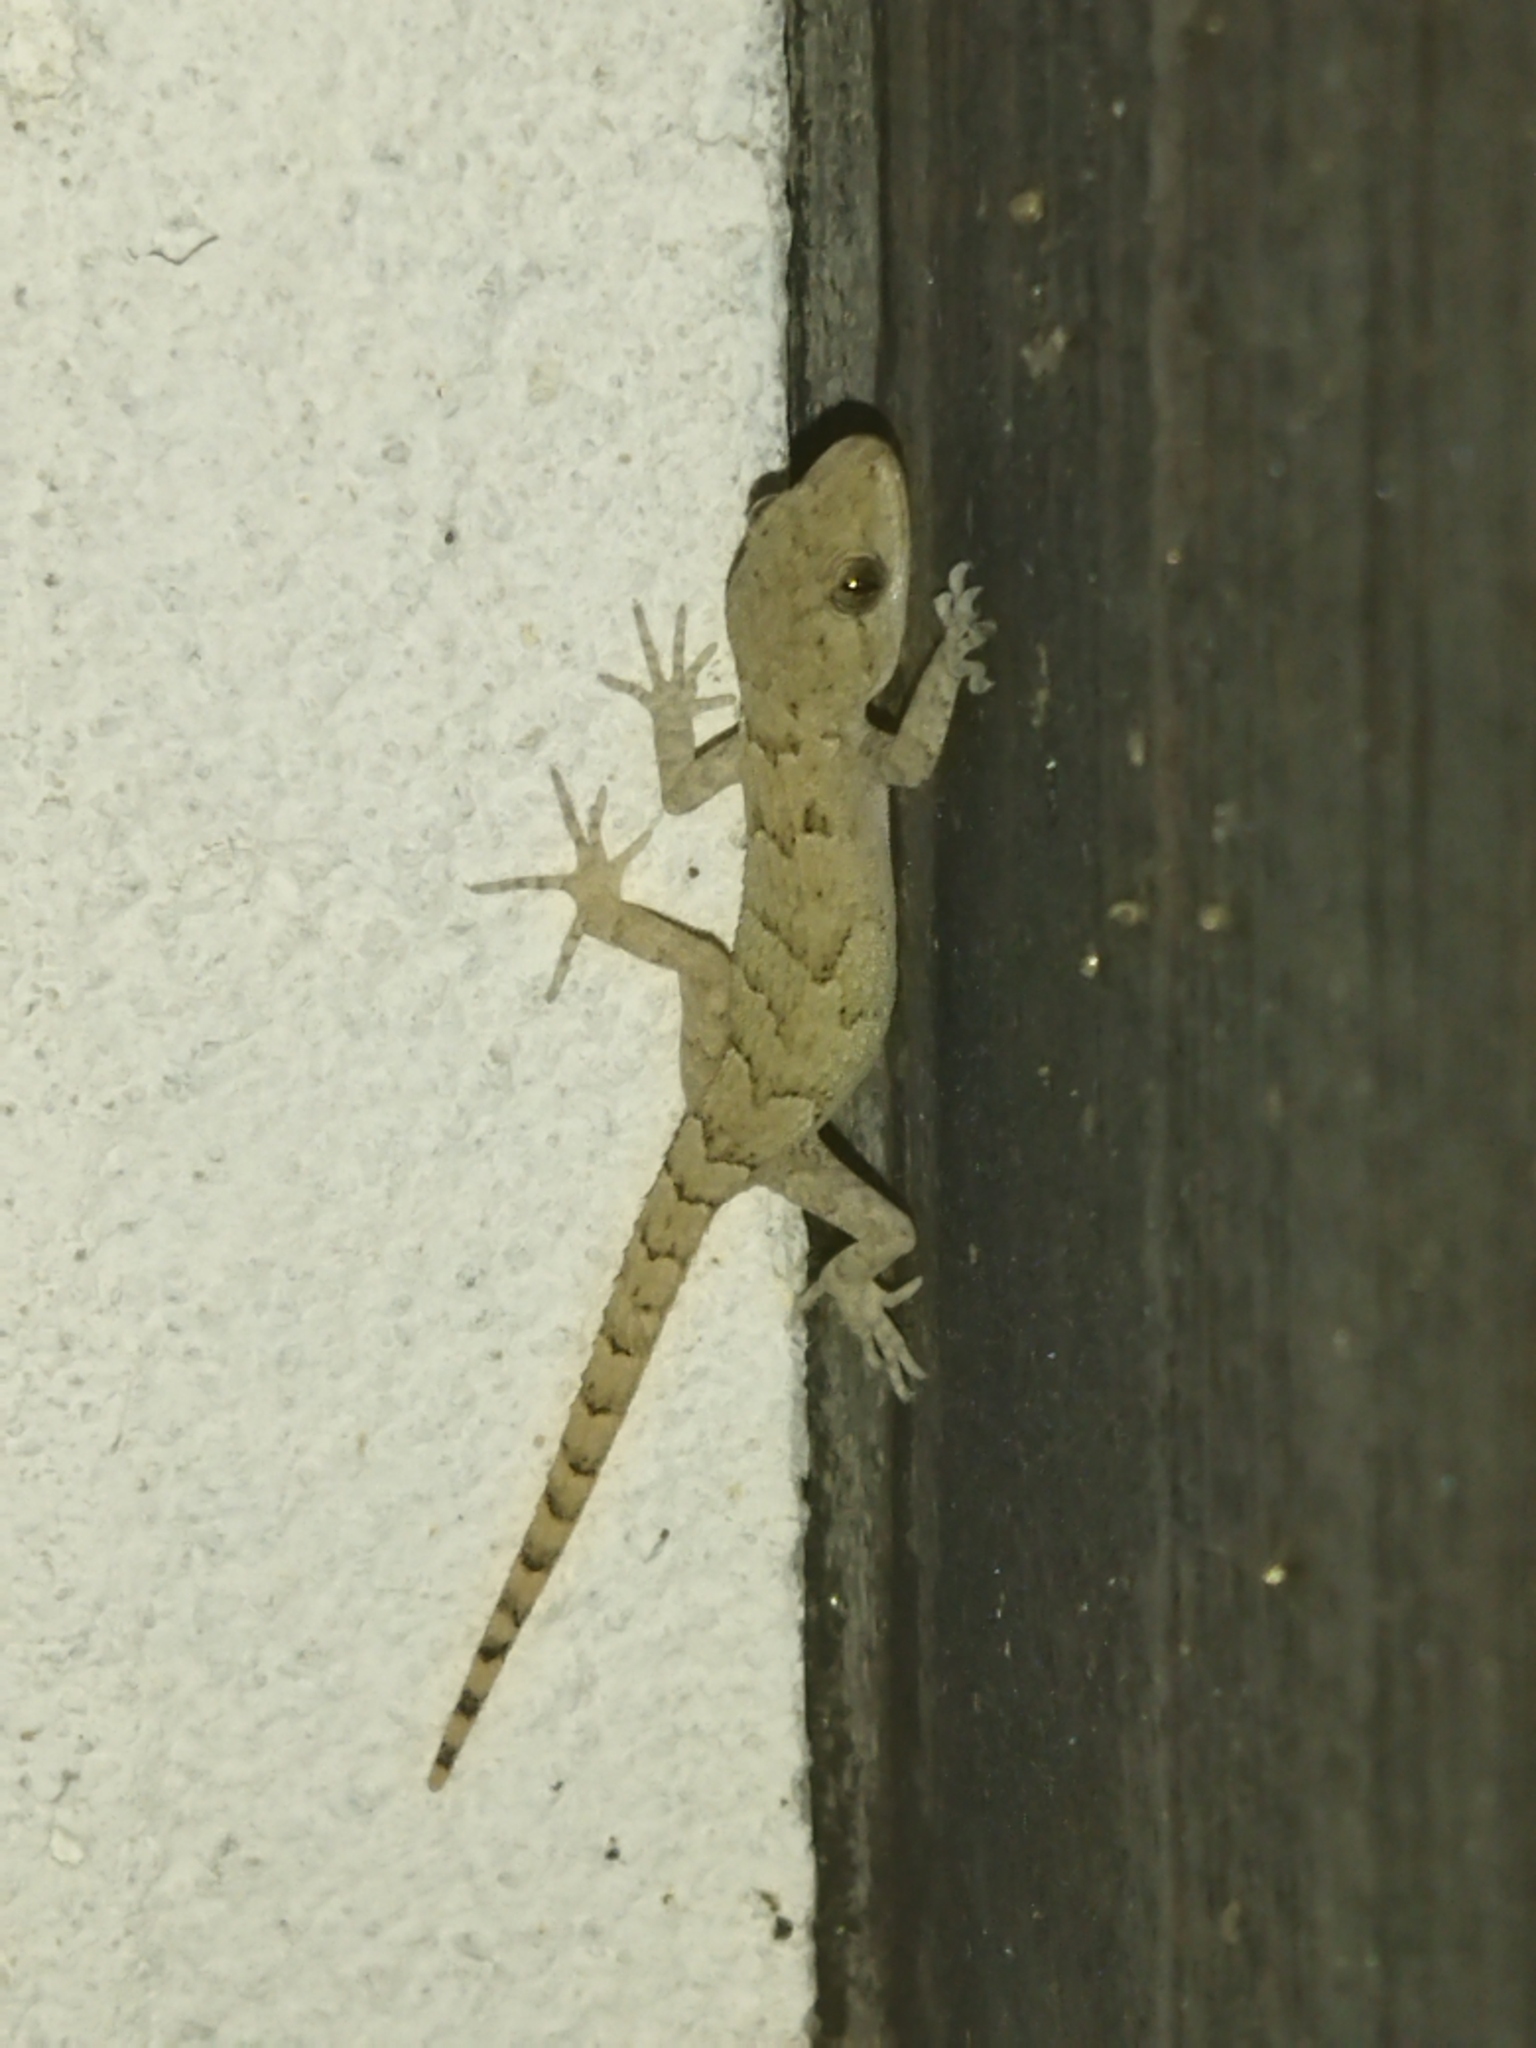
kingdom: Animalia
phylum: Chordata
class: Squamata
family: Gekkonidae
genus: Mediodactylus
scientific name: Mediodactylus kotschyi
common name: Kotschy's gecko
